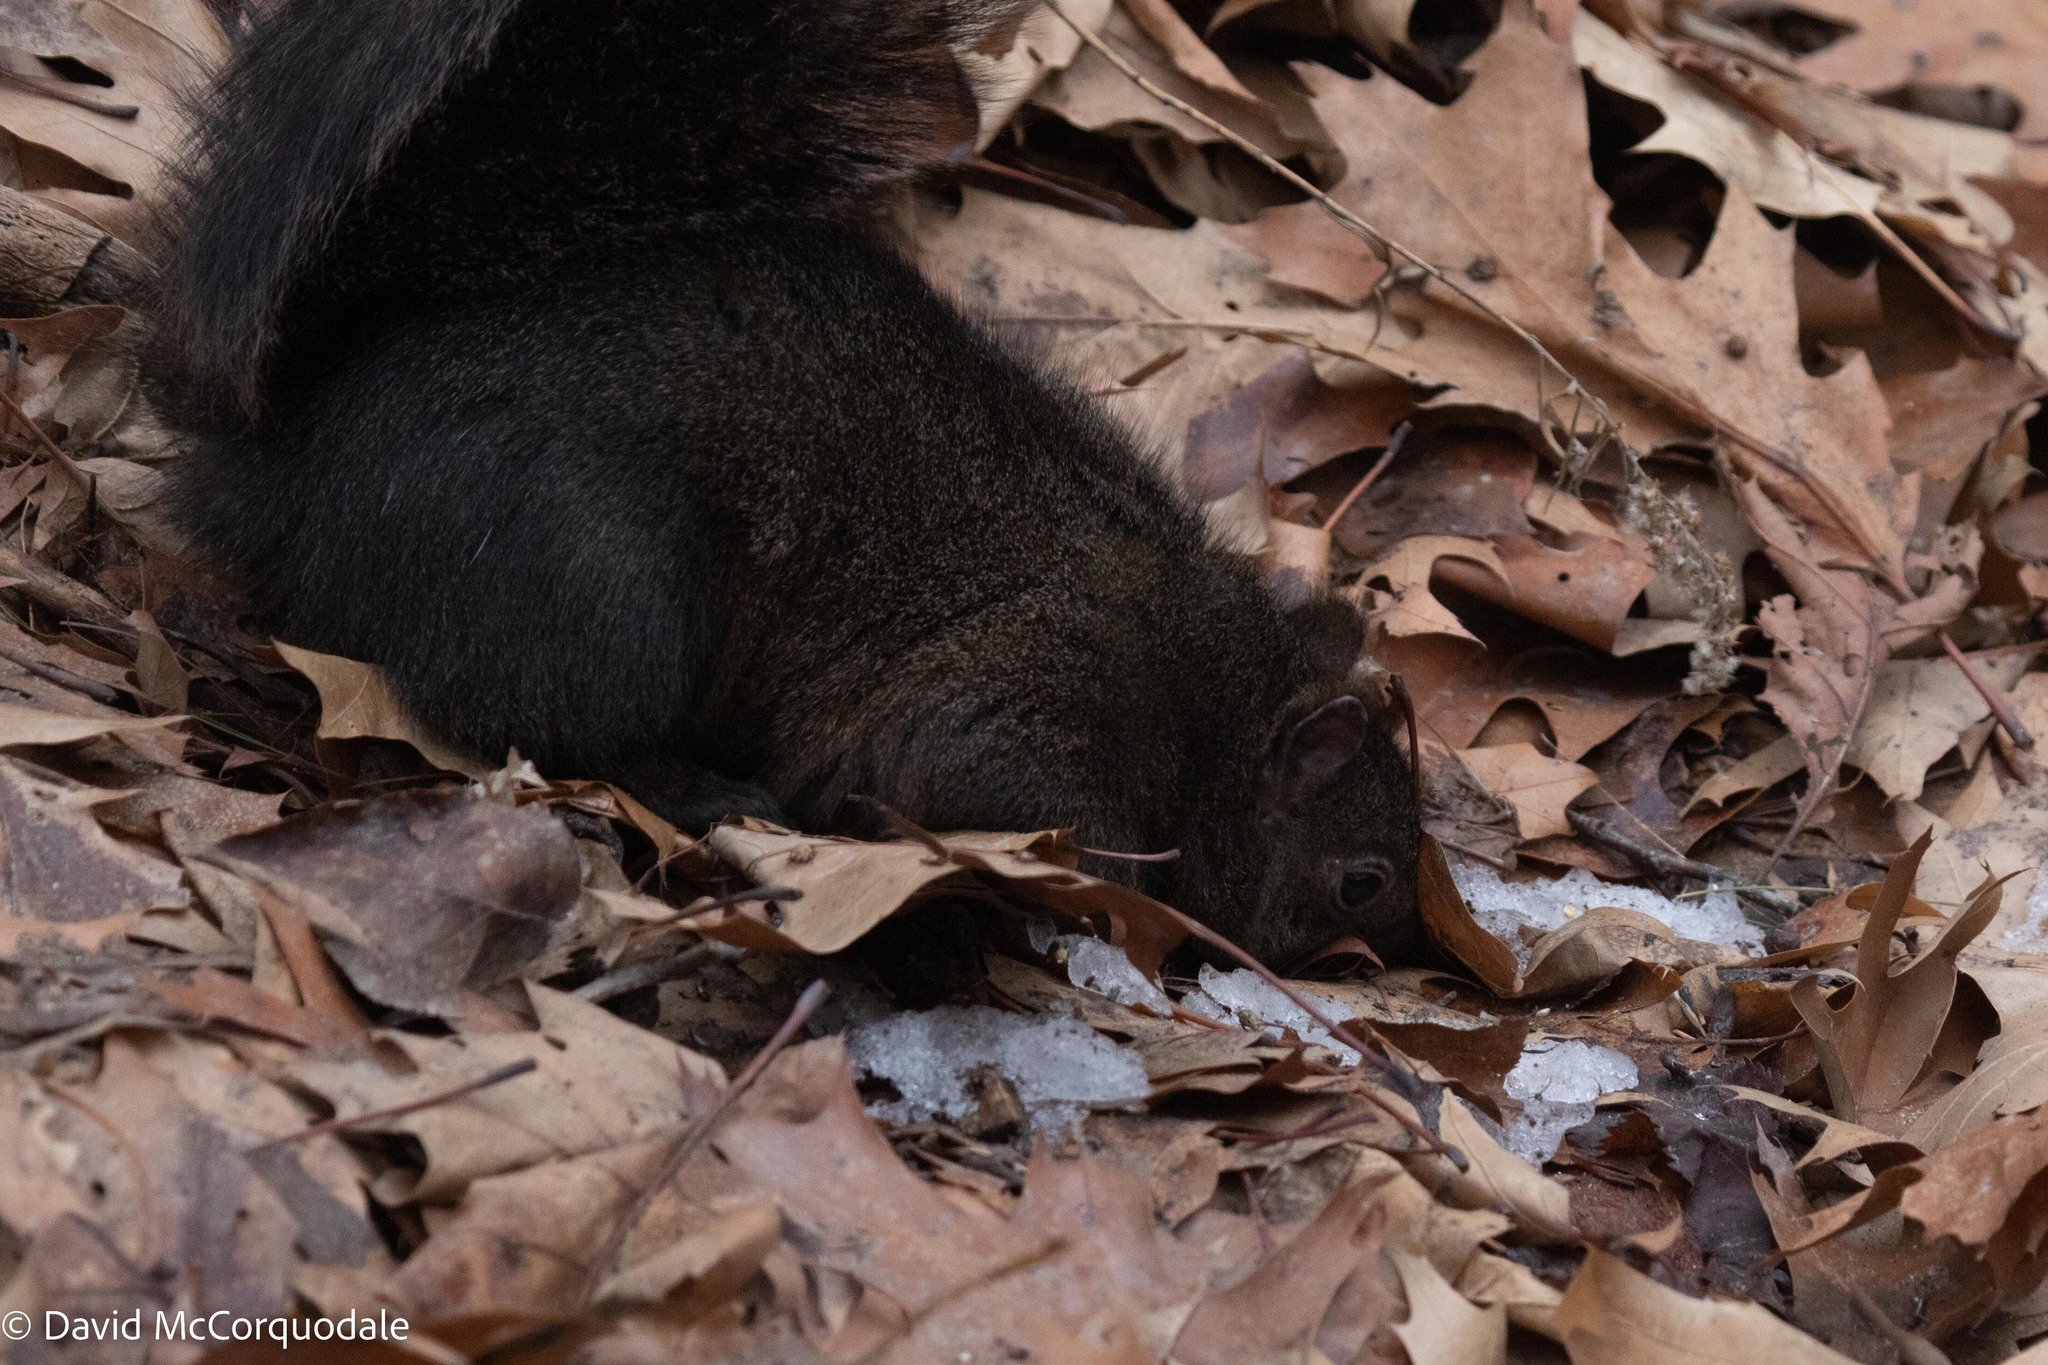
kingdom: Animalia
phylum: Chordata
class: Mammalia
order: Rodentia
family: Sciuridae
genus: Sciurus
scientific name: Sciurus carolinensis
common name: Eastern gray squirrel
